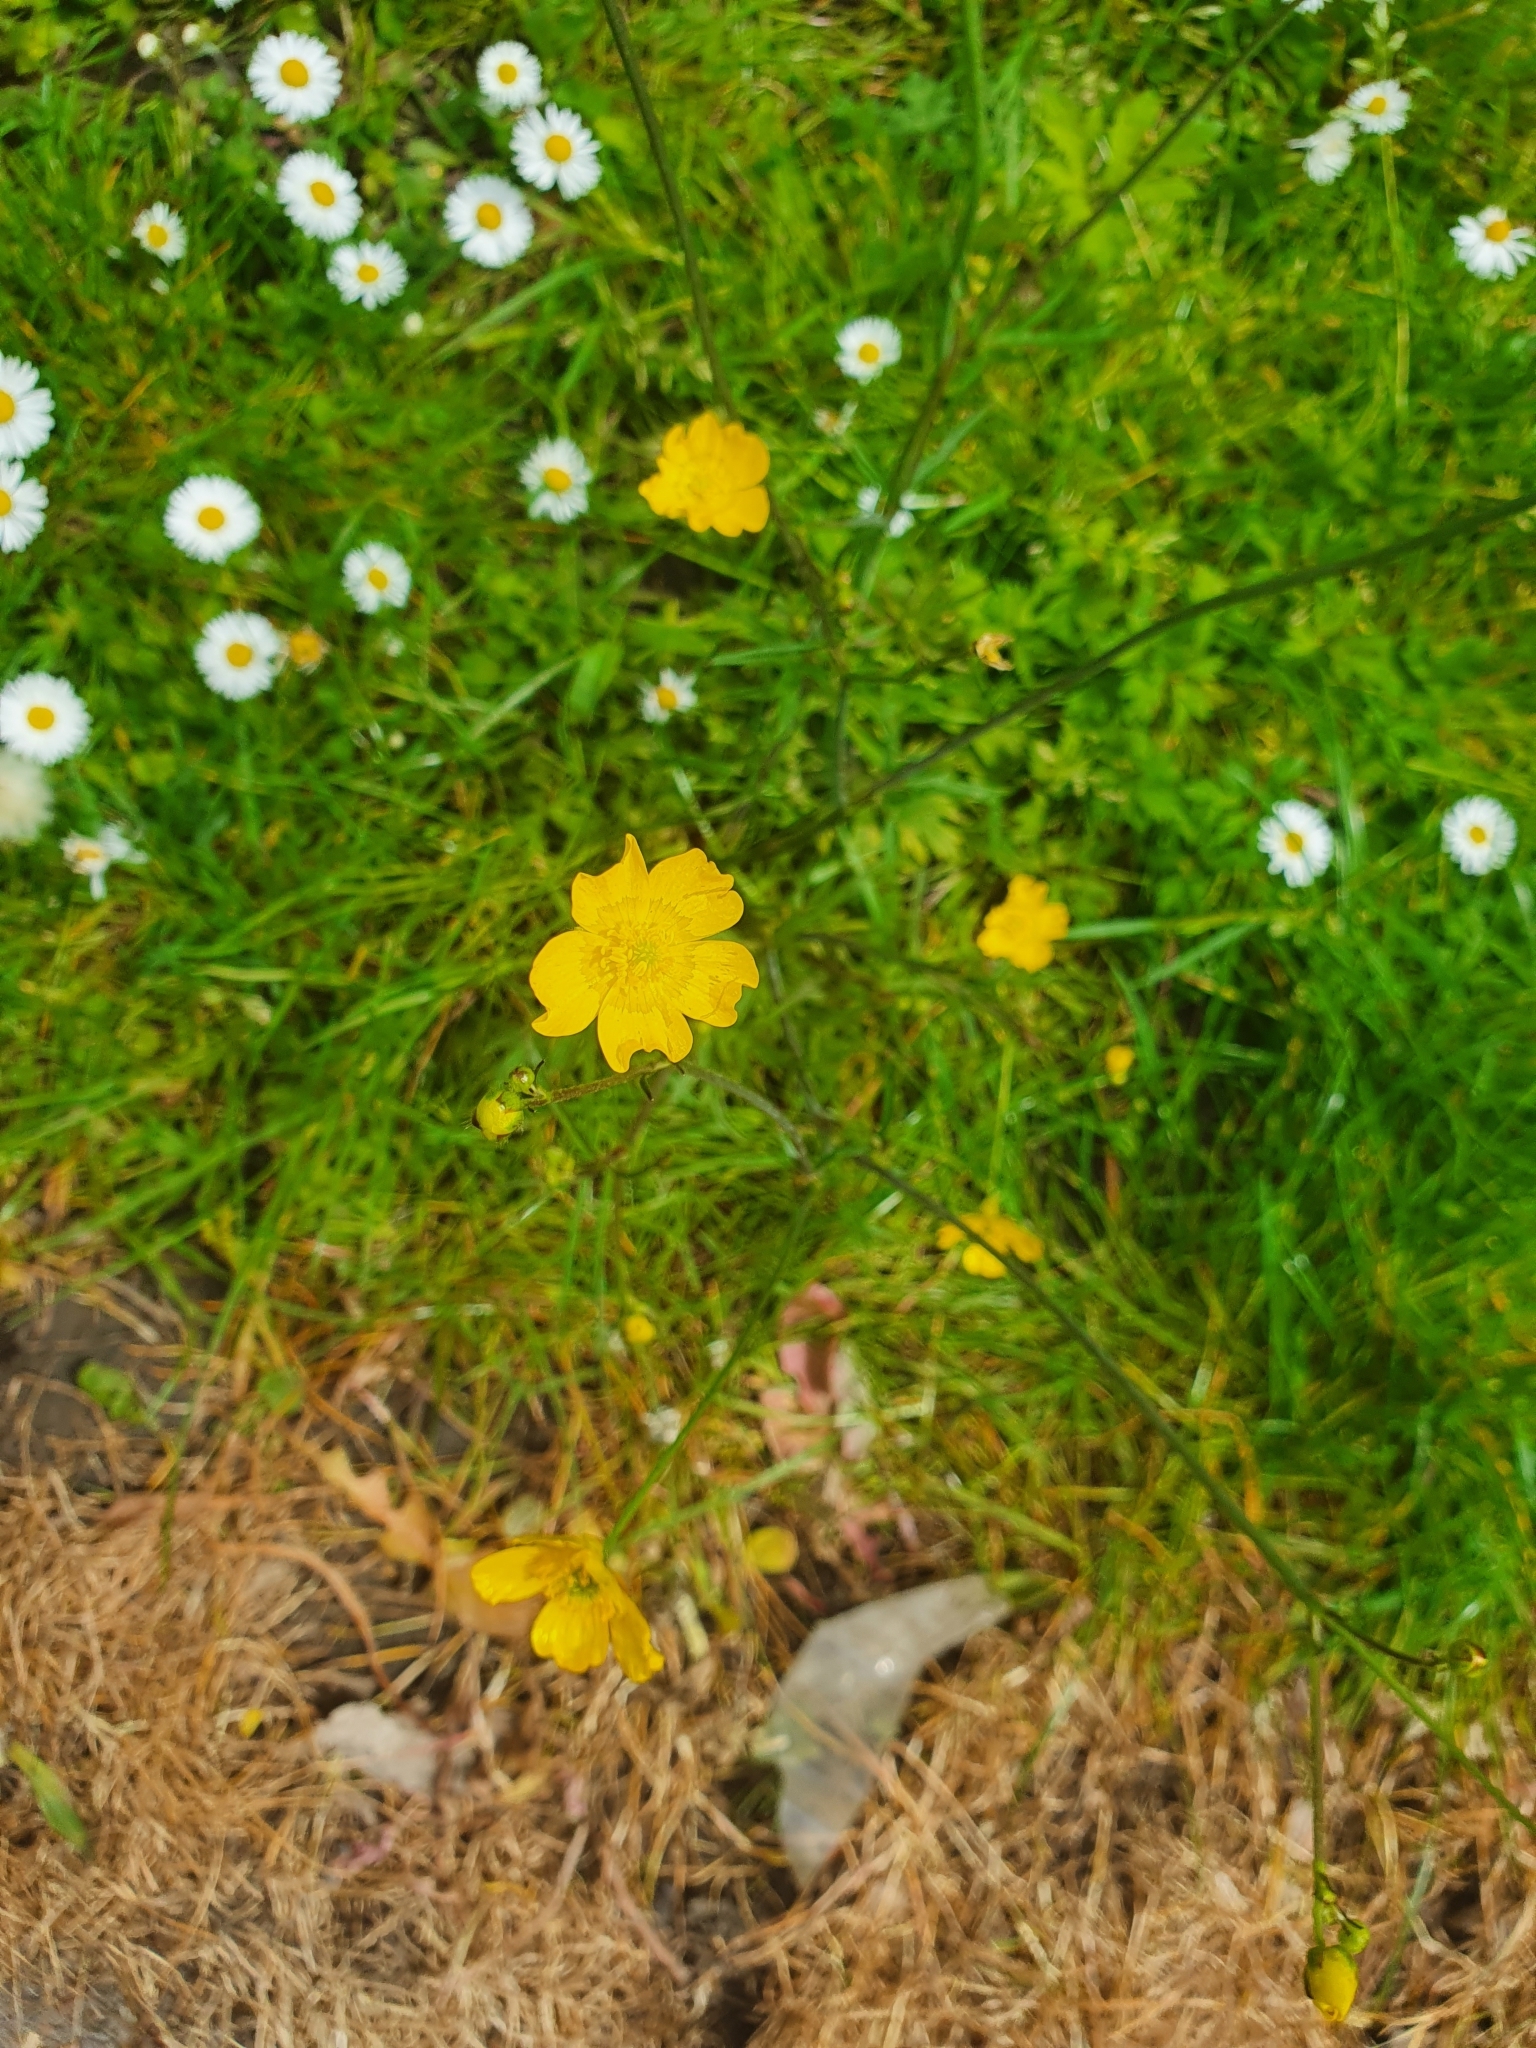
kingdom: Plantae
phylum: Tracheophyta
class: Magnoliopsida
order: Ranunculales
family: Ranunculaceae
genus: Ranunculus
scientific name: Ranunculus acris
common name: Meadow buttercup
